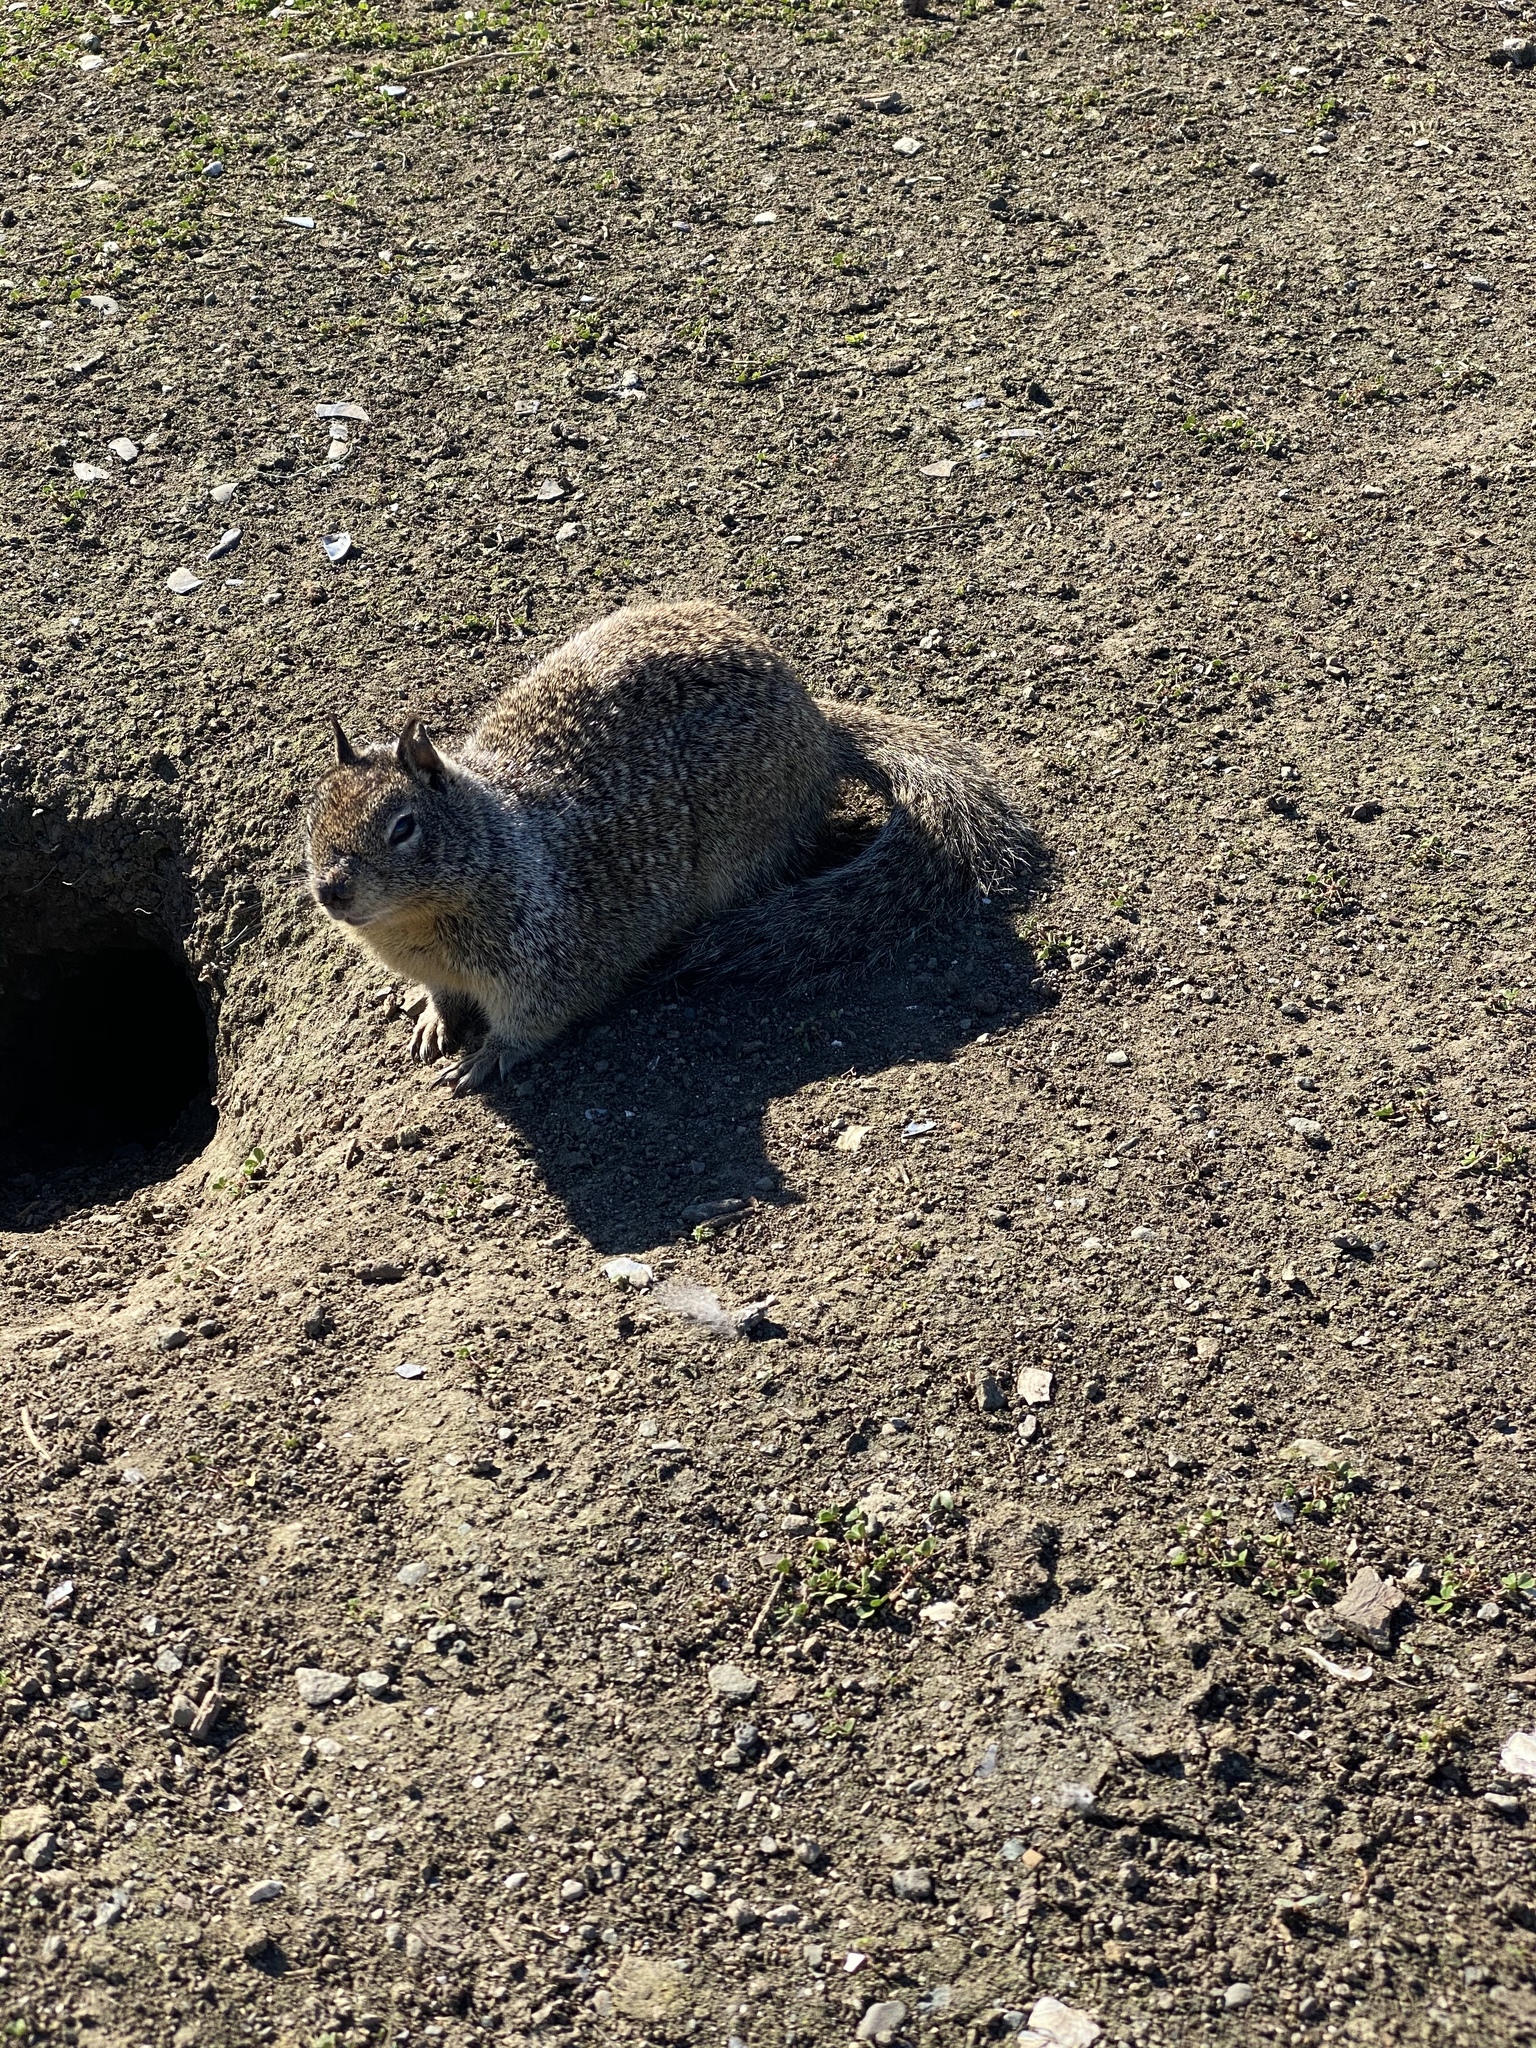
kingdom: Animalia
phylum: Chordata
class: Mammalia
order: Rodentia
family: Sciuridae
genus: Otospermophilus
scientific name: Otospermophilus beecheyi
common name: California ground squirrel
